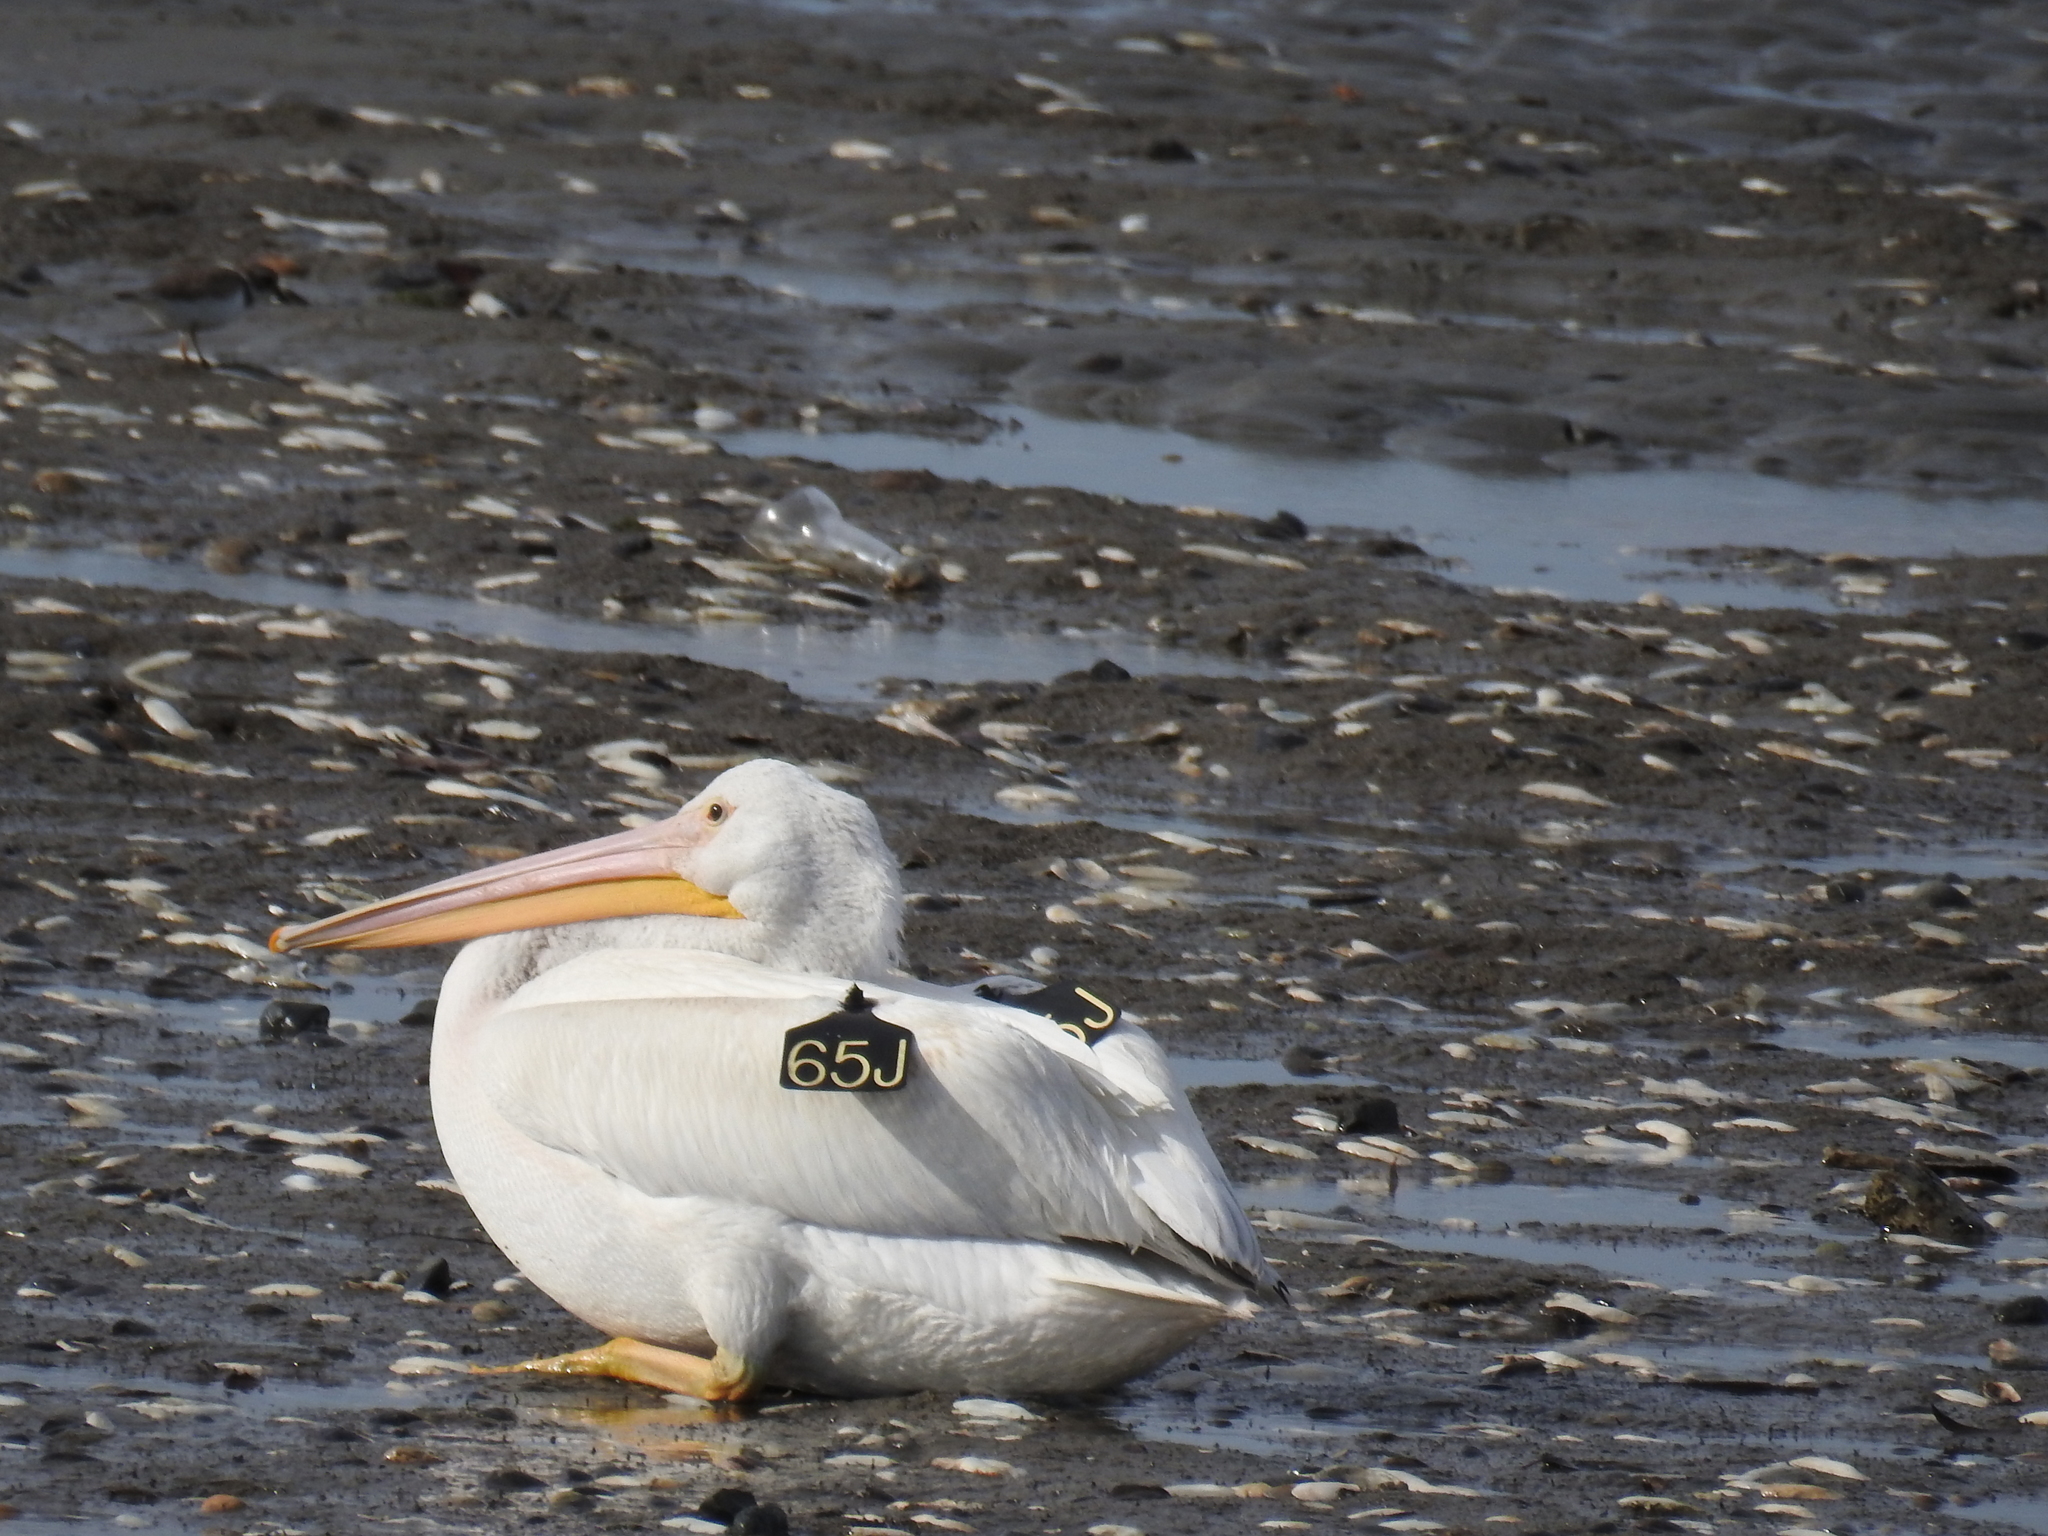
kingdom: Animalia
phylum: Chordata
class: Aves
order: Pelecaniformes
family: Pelecanidae
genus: Pelecanus
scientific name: Pelecanus erythrorhynchos
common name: American white pelican
